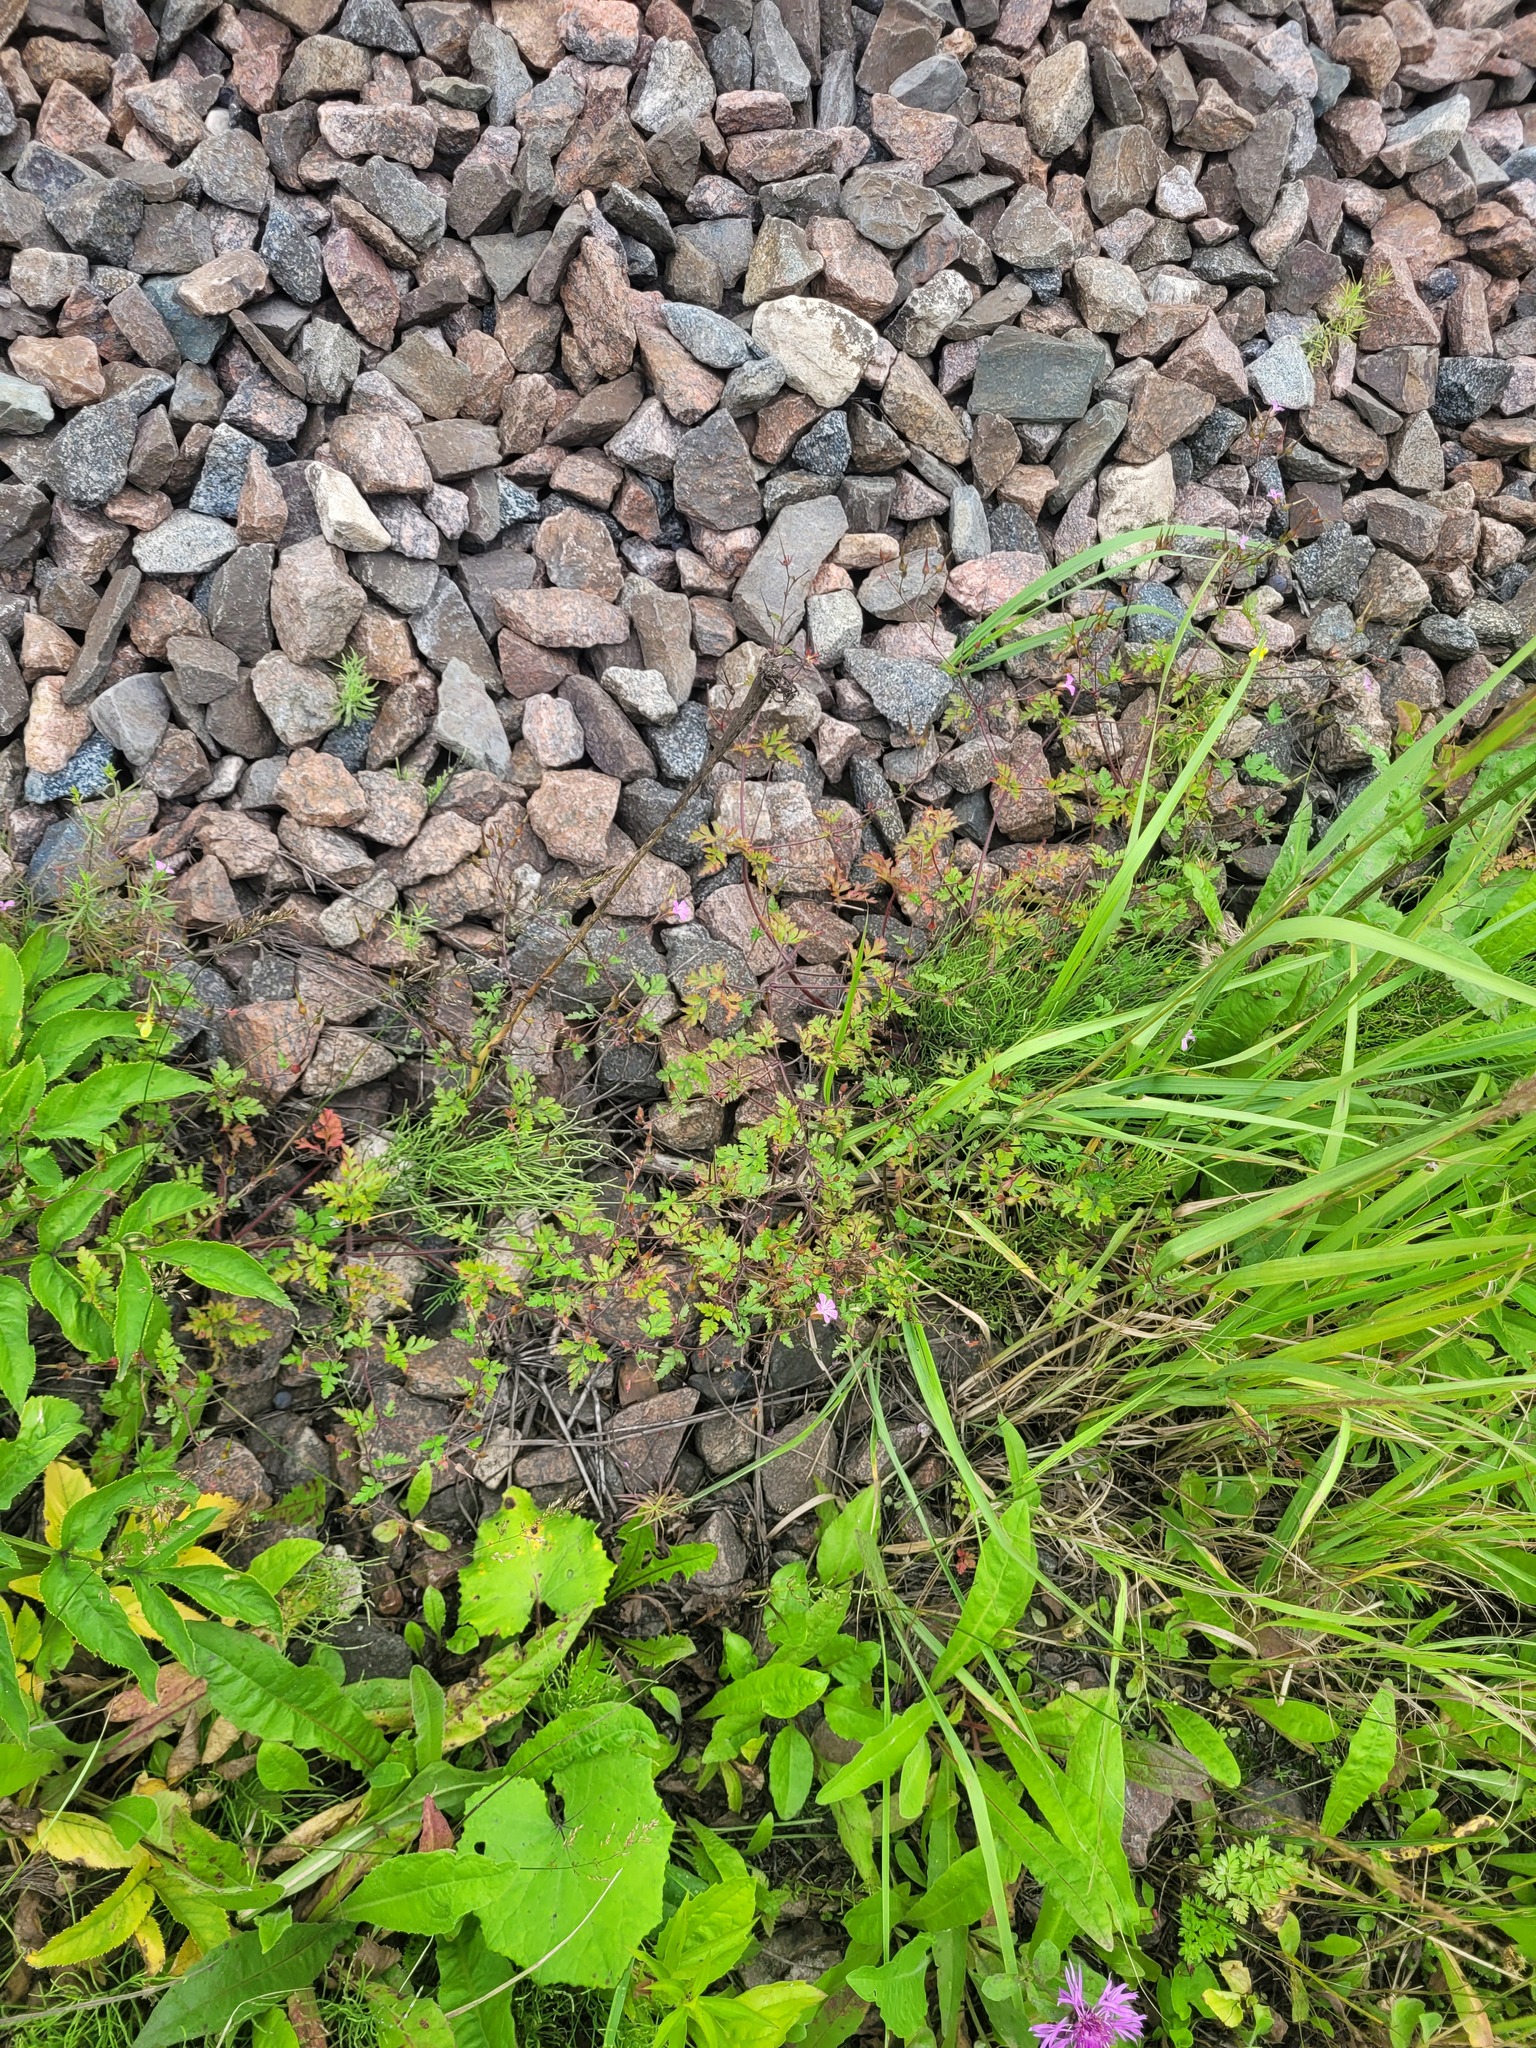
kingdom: Plantae
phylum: Tracheophyta
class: Magnoliopsida
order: Geraniales
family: Geraniaceae
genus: Geranium
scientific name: Geranium robertianum
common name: Herb-robert
